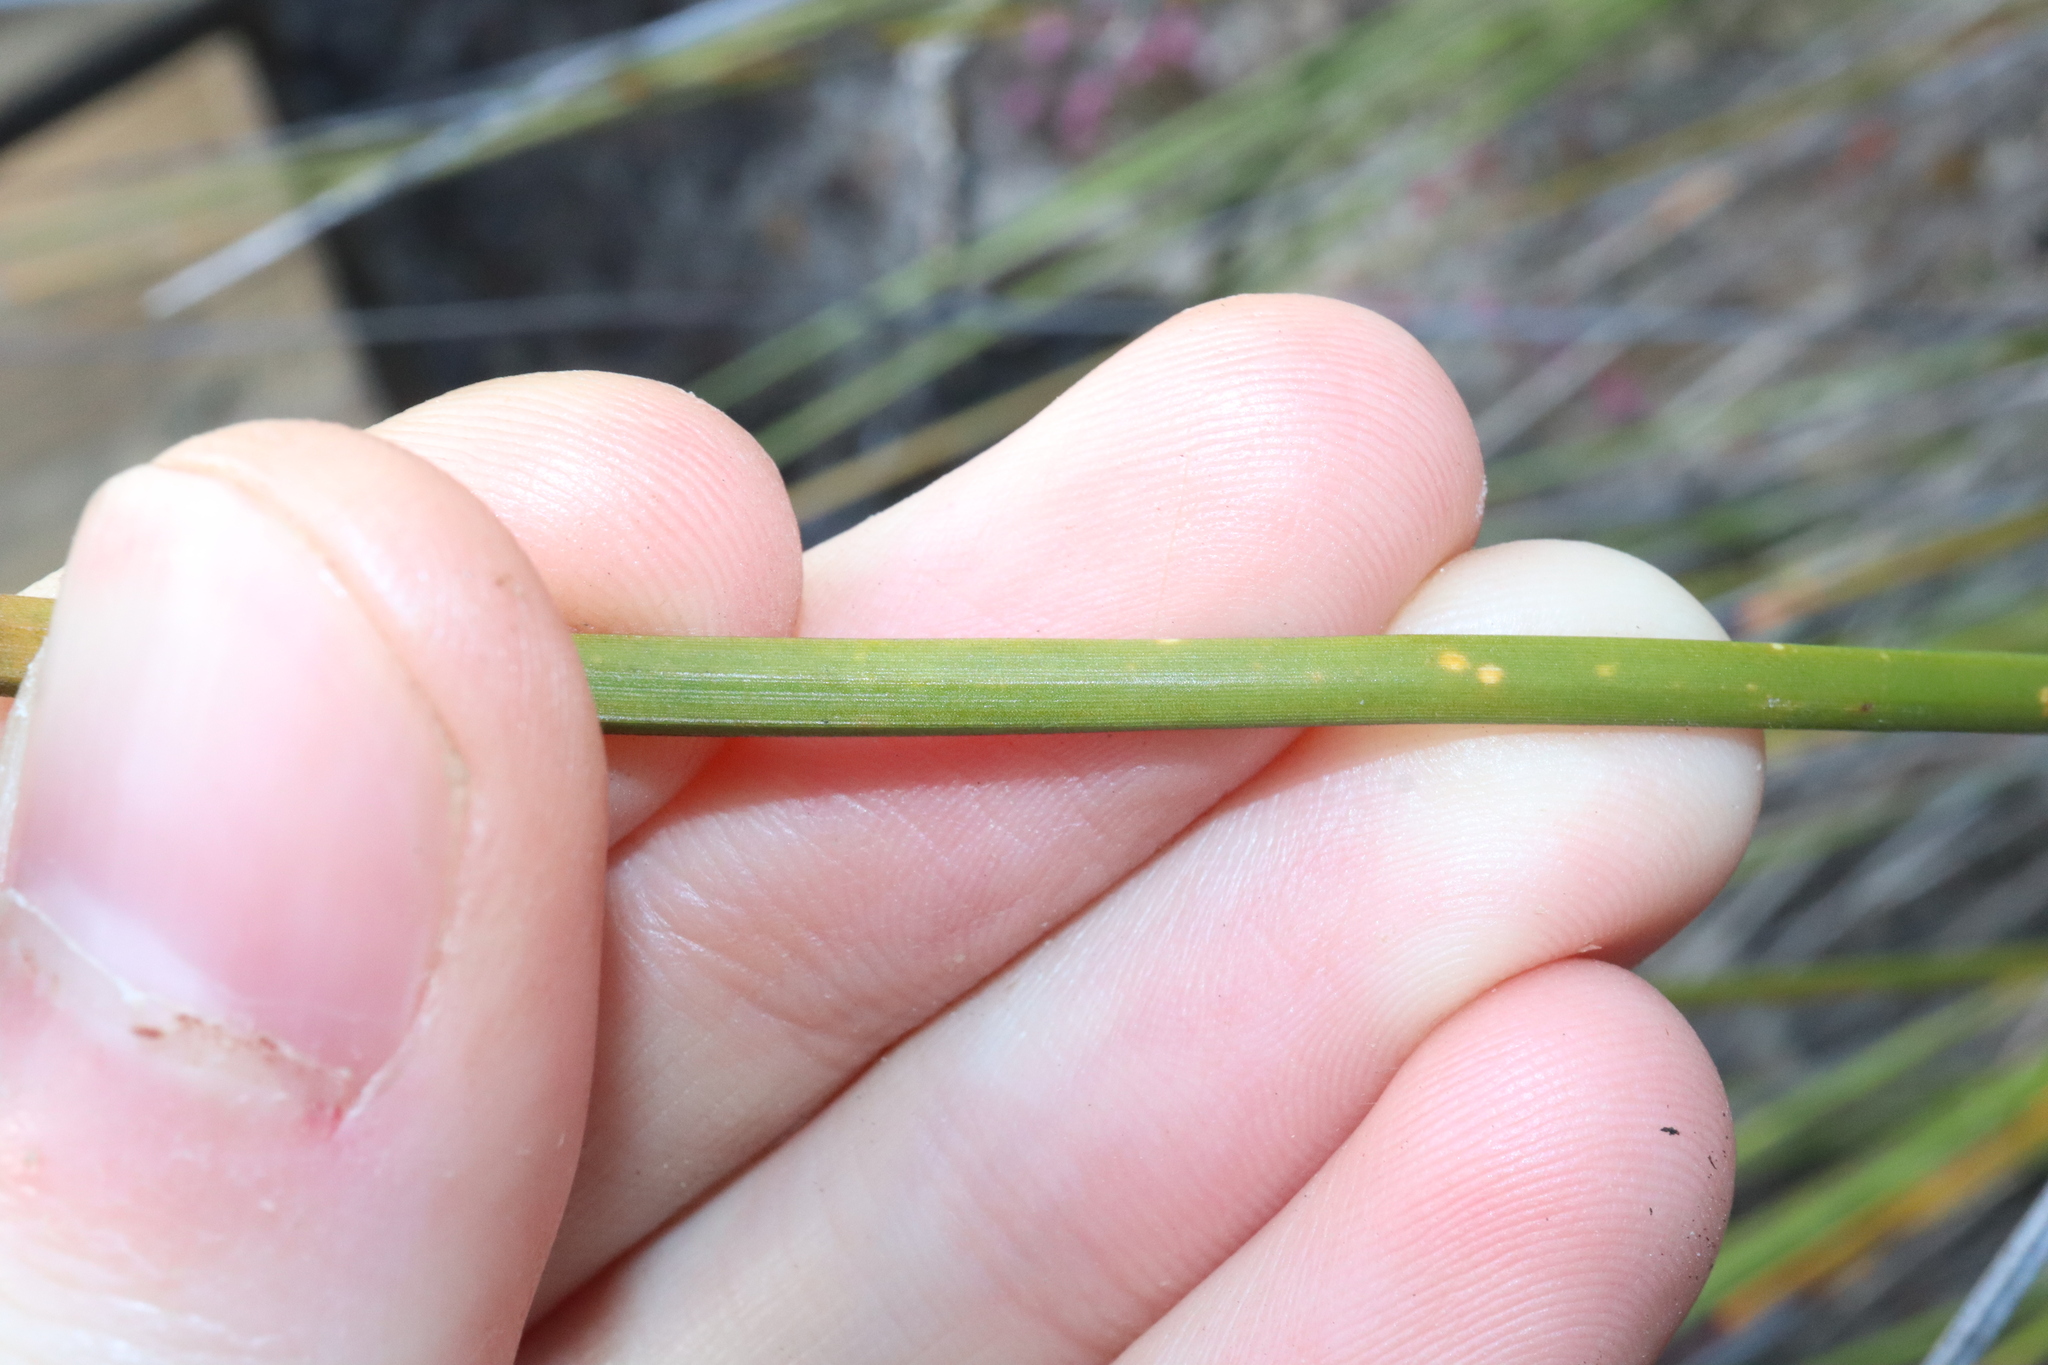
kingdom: Plantae
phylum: Tracheophyta
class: Liliopsida
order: Poales
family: Cyperaceae
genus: Mesomelaena
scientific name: Mesomelaena tetragona
